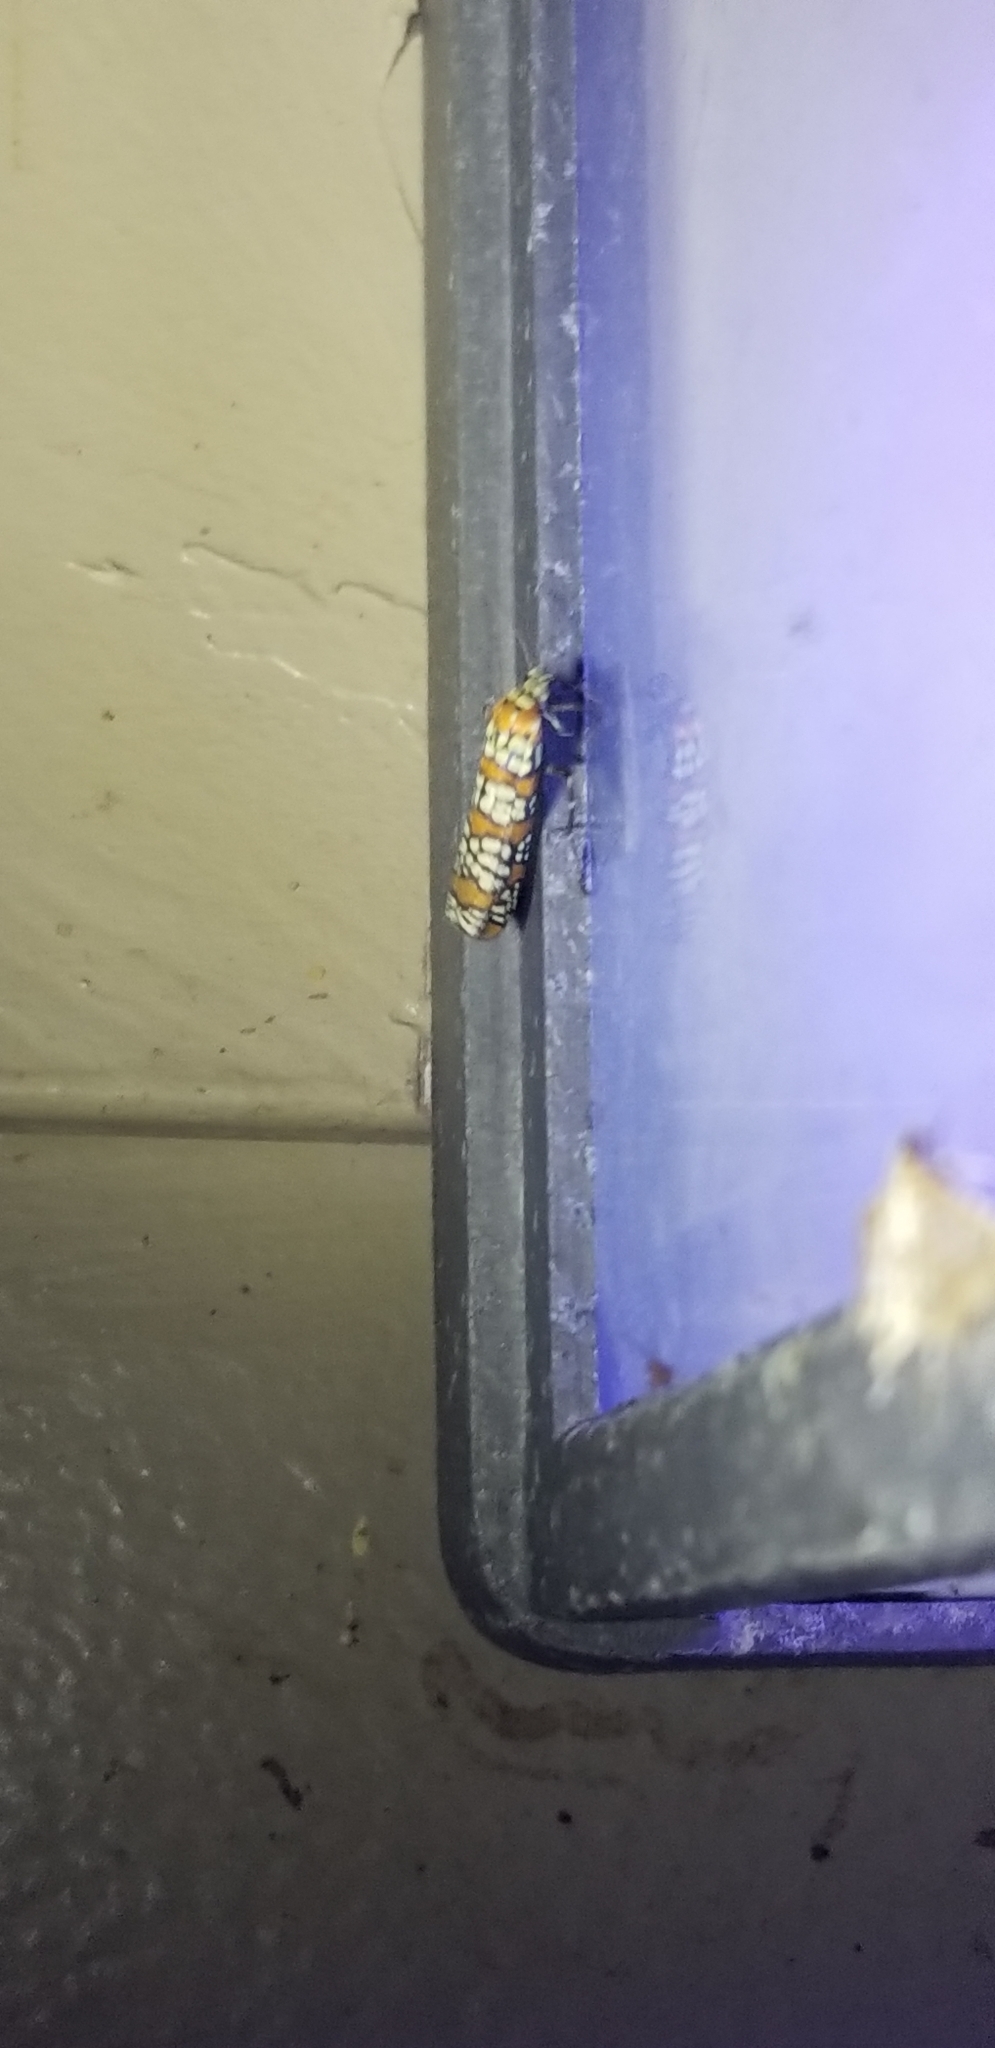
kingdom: Animalia
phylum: Arthropoda
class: Insecta
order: Lepidoptera
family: Attevidae
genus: Atteva
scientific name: Atteva punctella
